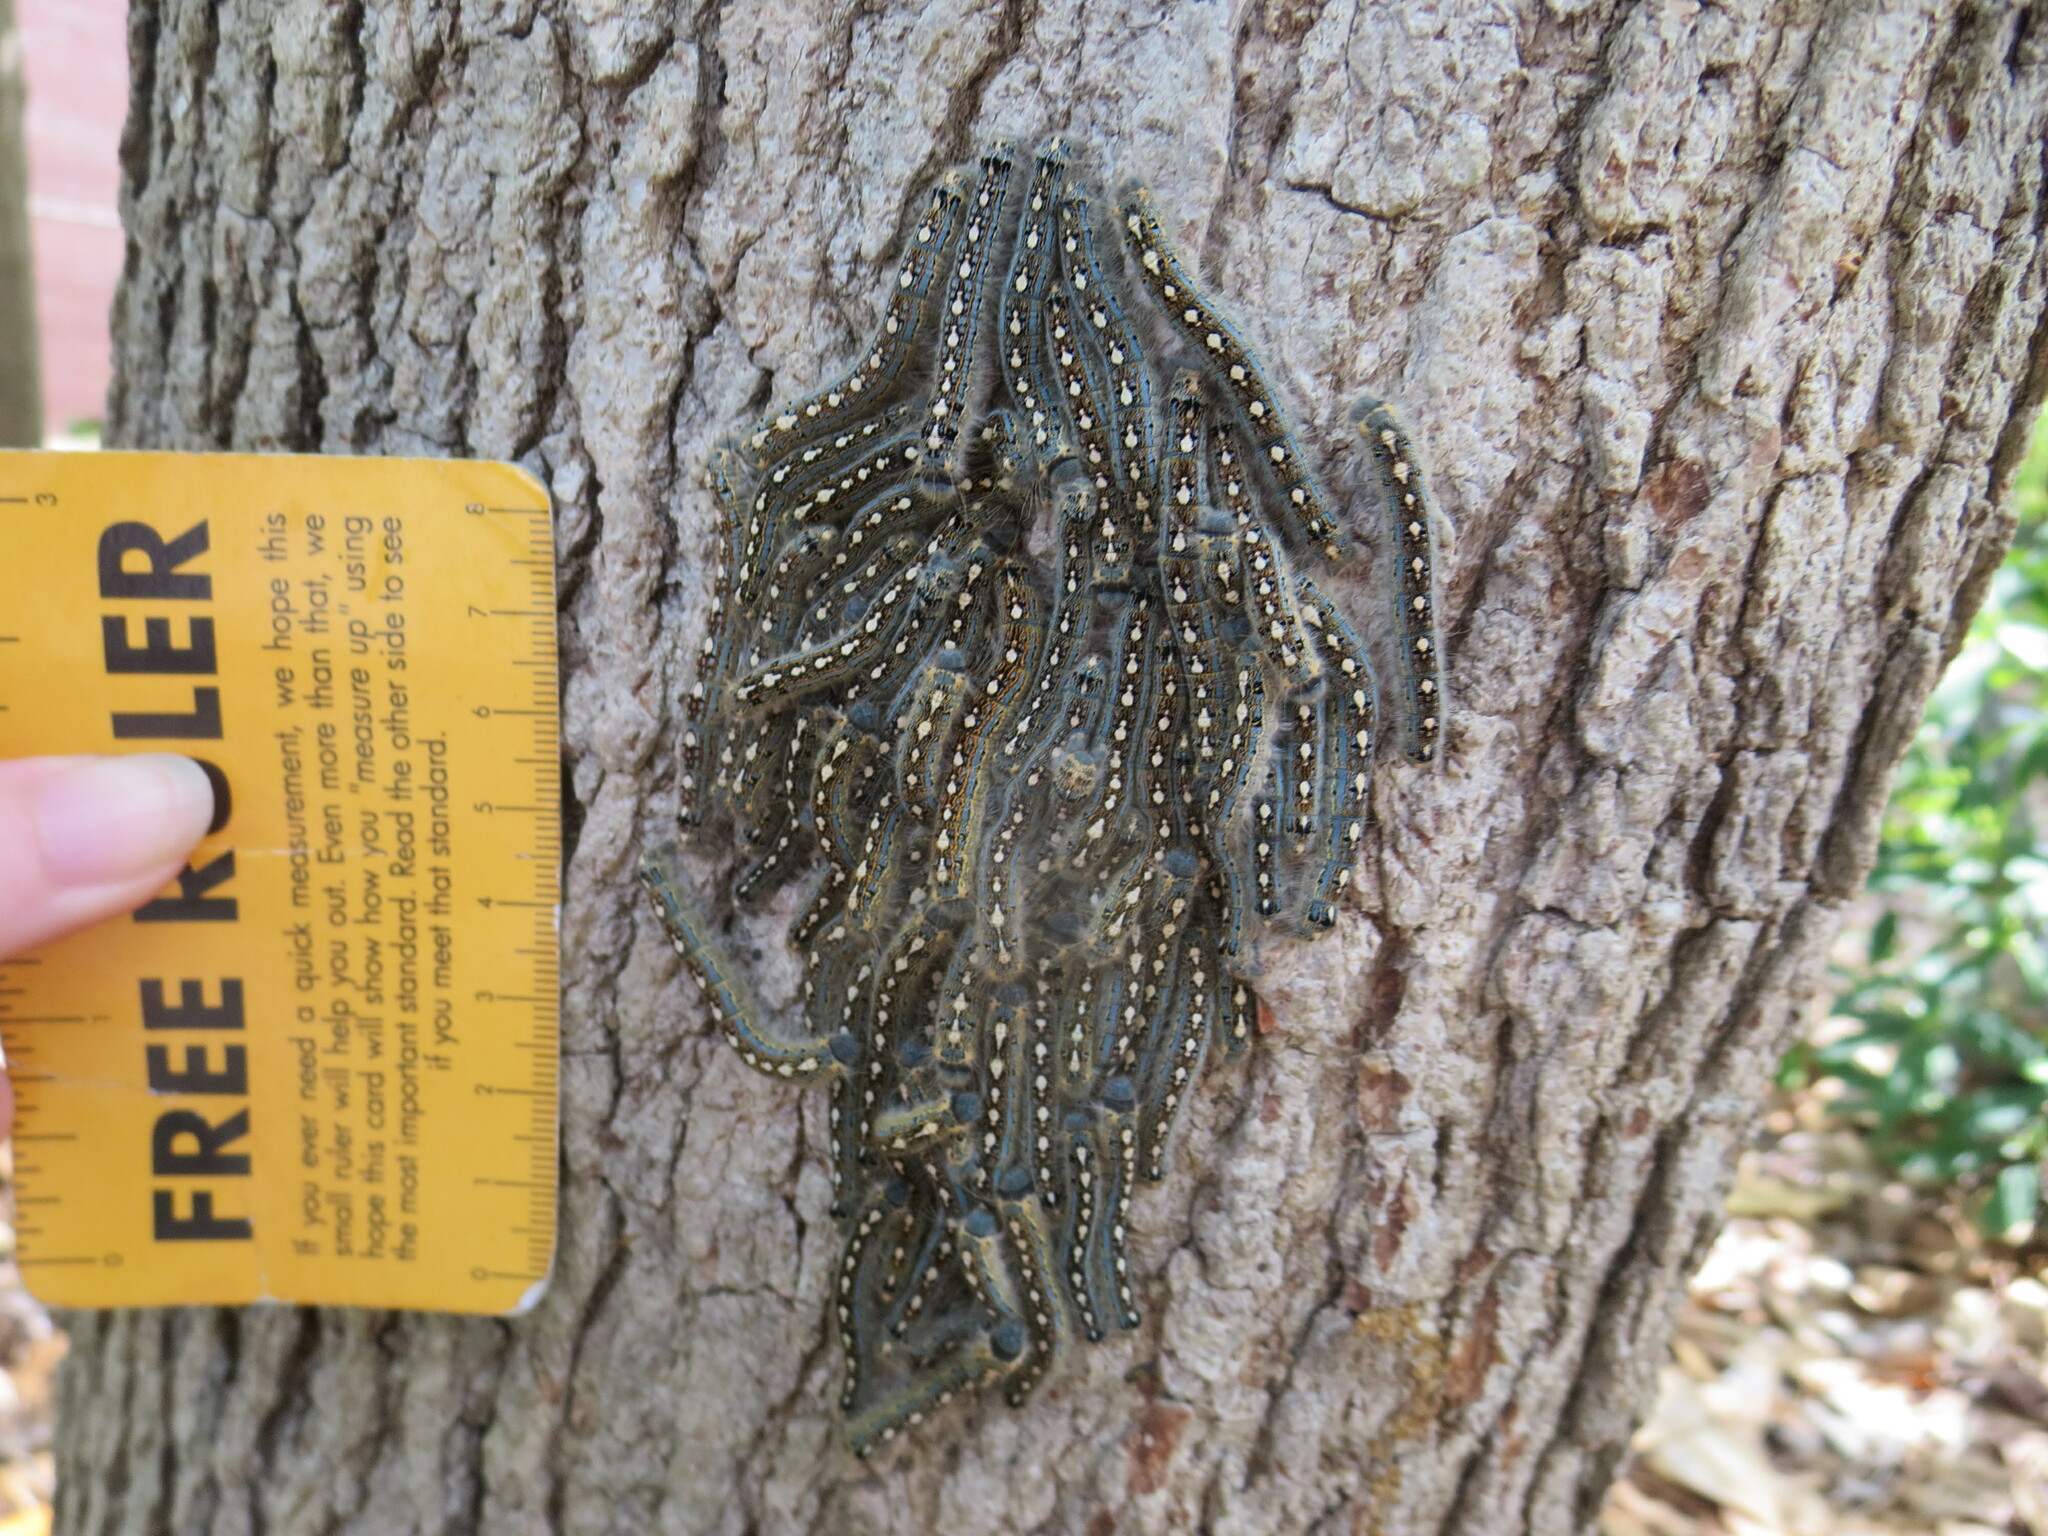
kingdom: Animalia
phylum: Arthropoda
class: Insecta
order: Lepidoptera
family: Lasiocampidae
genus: Malacosoma
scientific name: Malacosoma disstria
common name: Forest tent caterpillar
